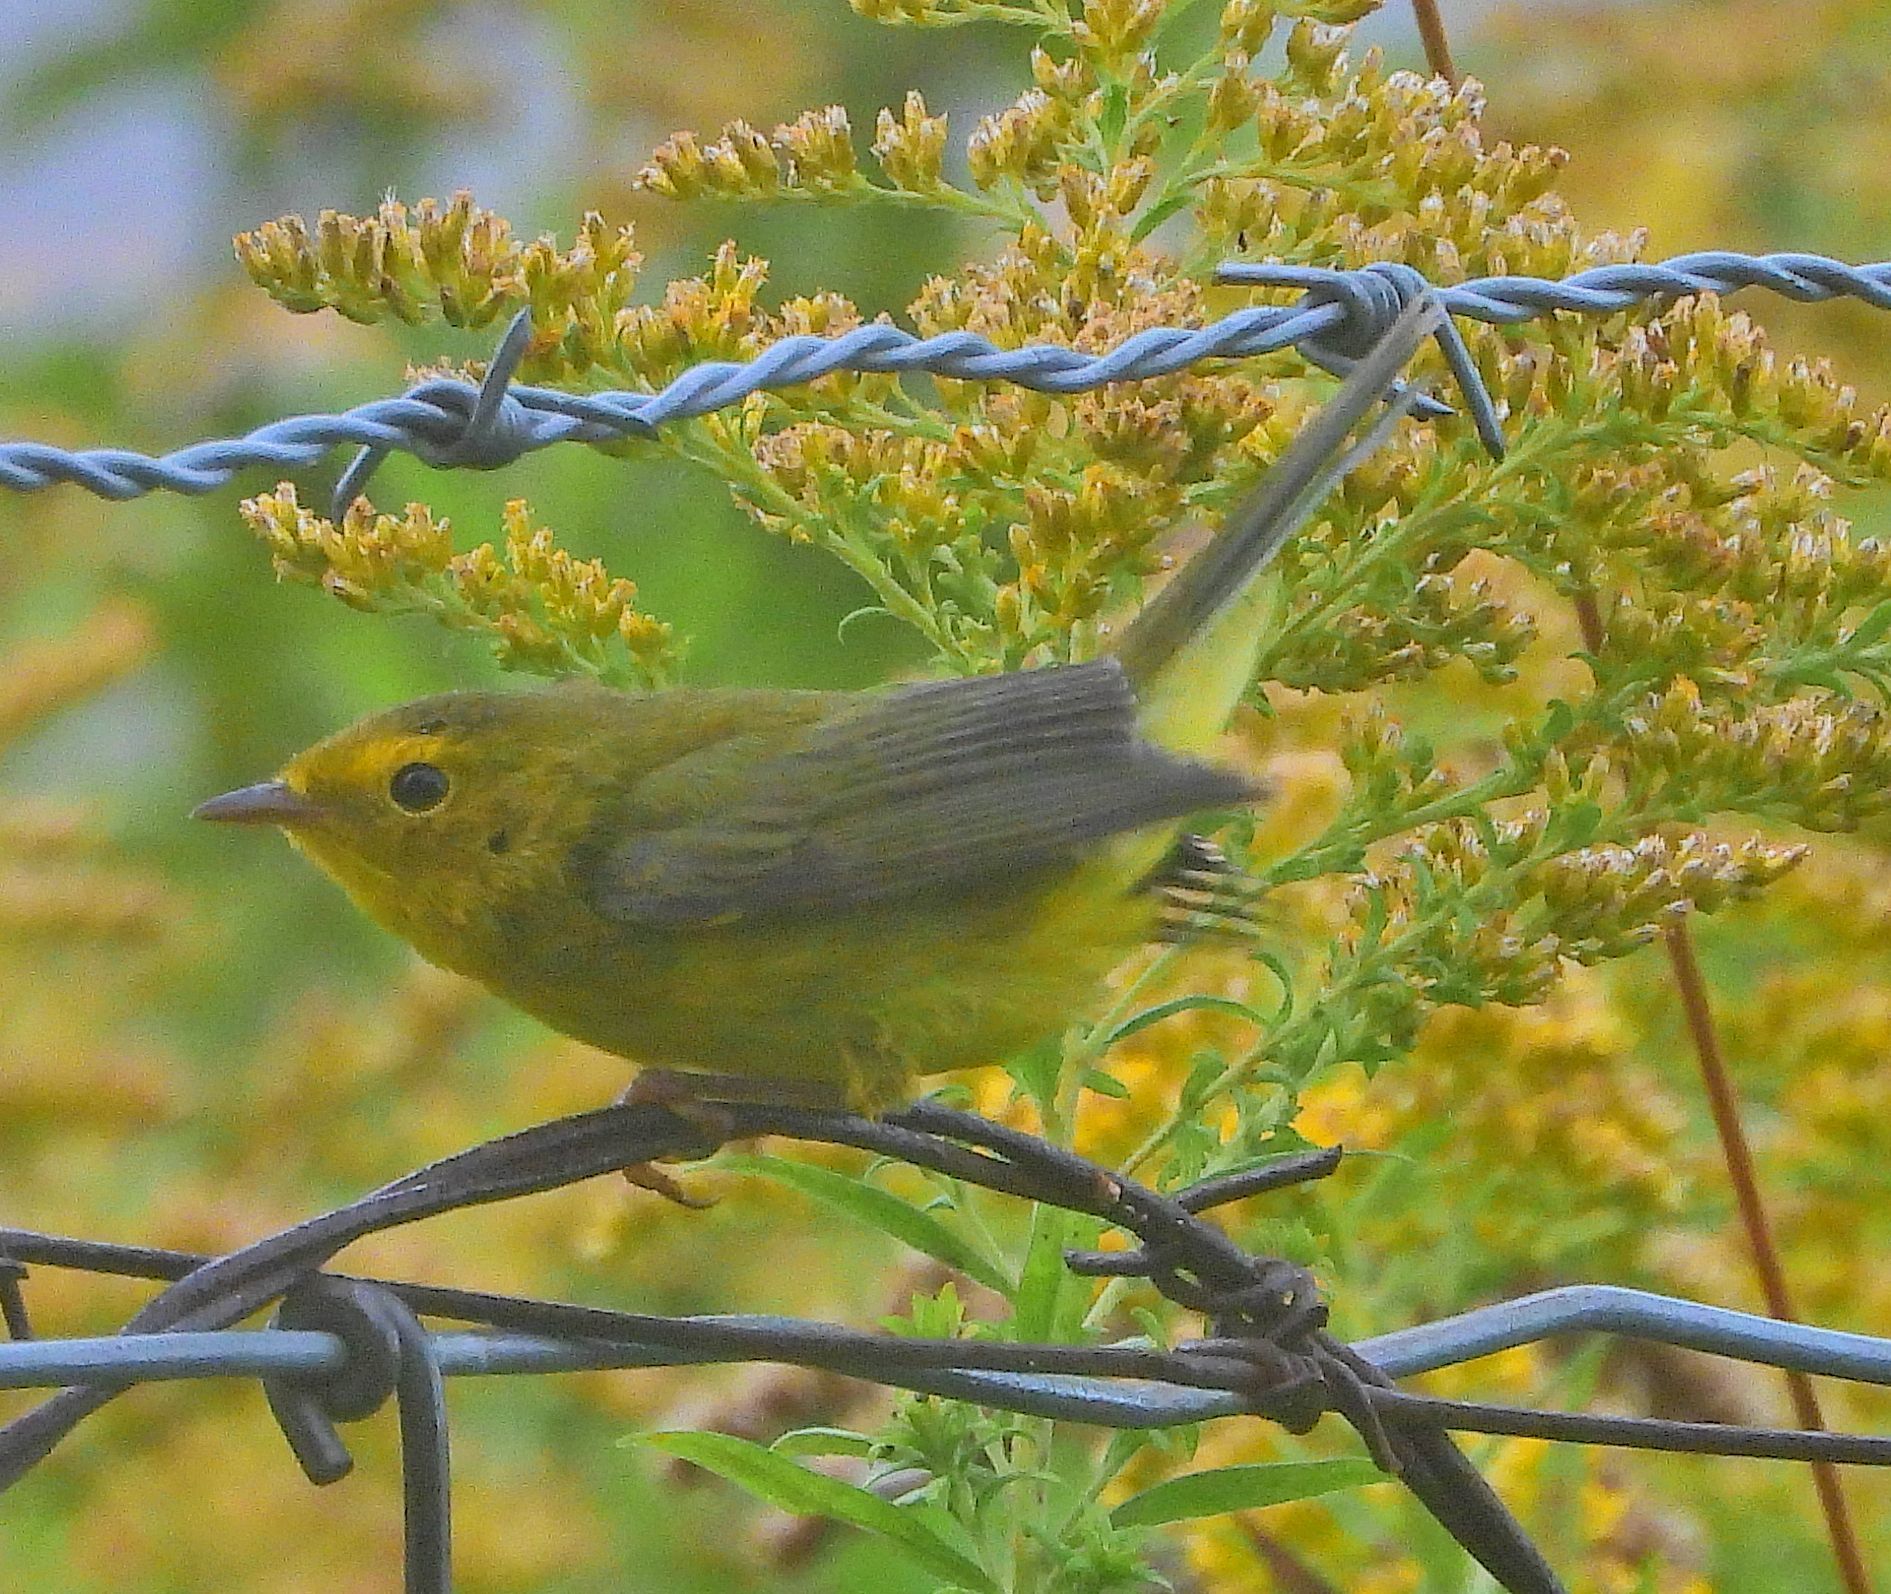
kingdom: Animalia
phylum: Chordata
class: Aves
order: Passeriformes
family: Parulidae
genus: Cardellina
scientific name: Cardellina pusilla
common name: Wilson's warbler
